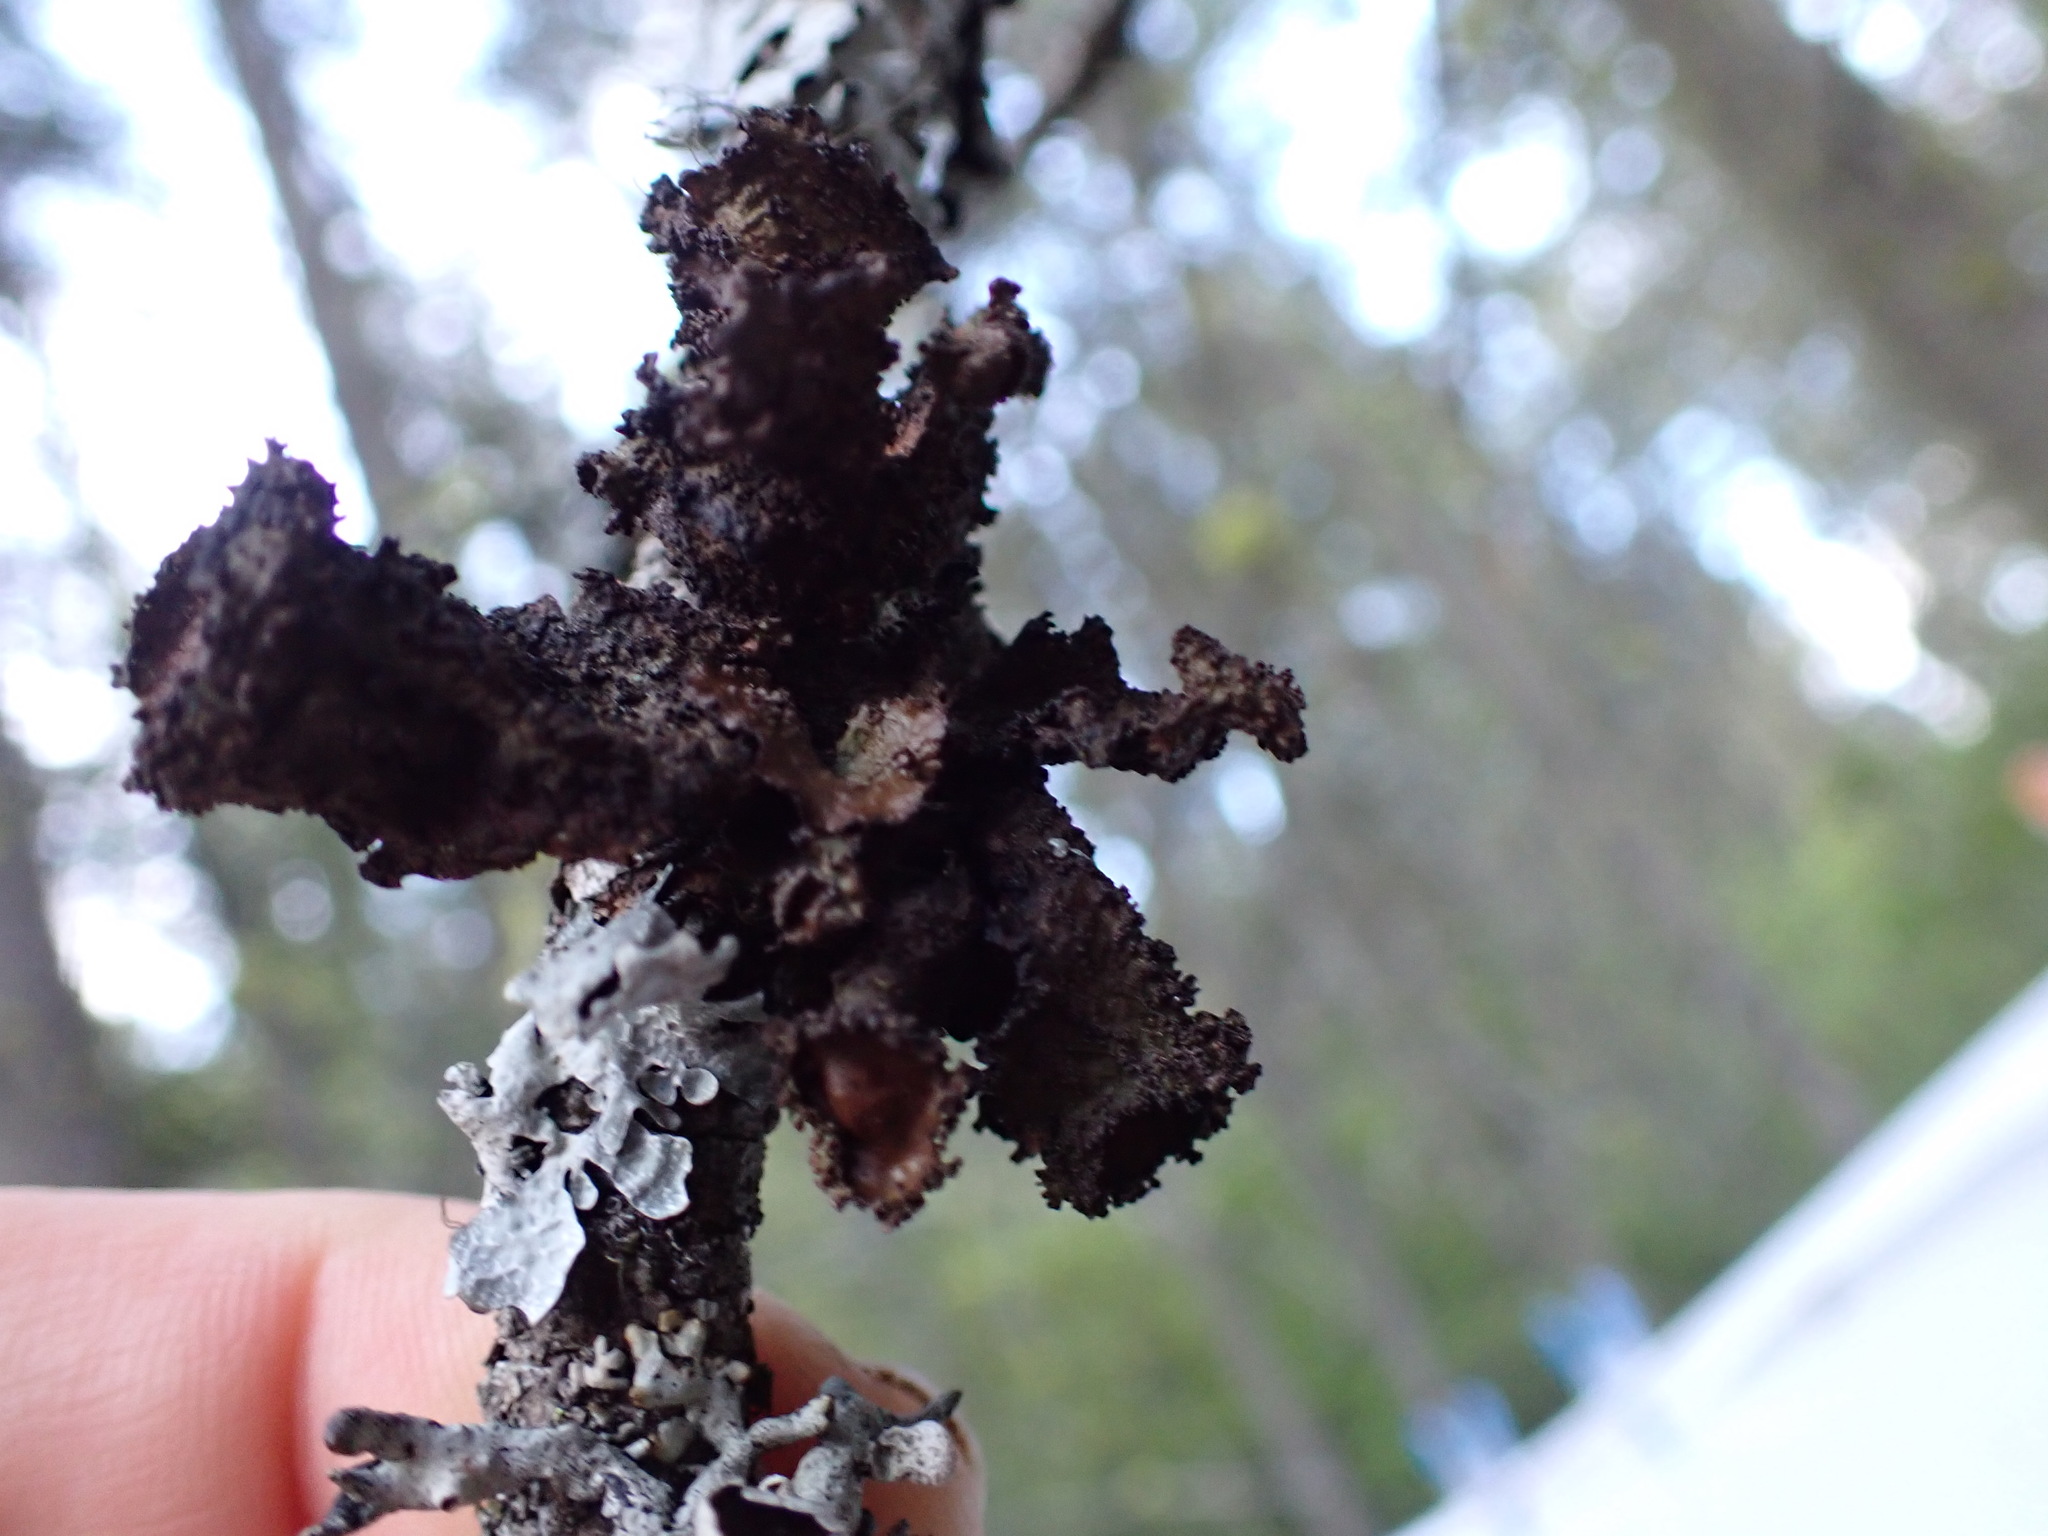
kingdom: Fungi
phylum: Ascomycota
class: Lecanoromycetes
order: Lecanorales
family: Parmeliaceae
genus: Tuckermanopsis
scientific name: Tuckermanopsis platyphylla
